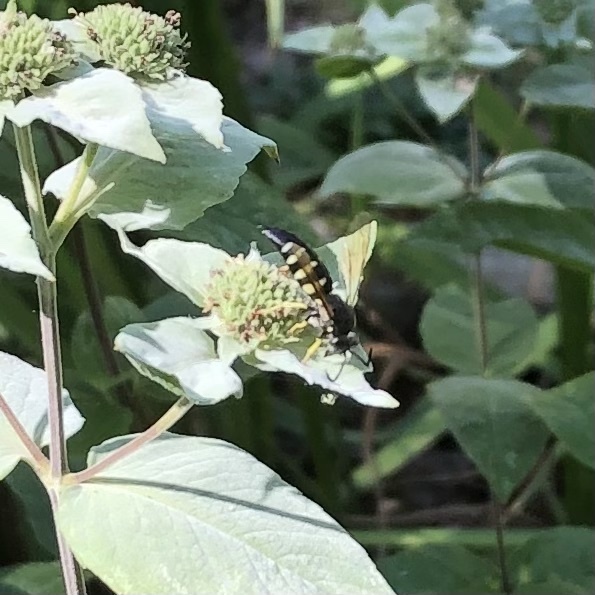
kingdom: Animalia
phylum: Arthropoda
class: Insecta
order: Hymenoptera
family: Crabronidae
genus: Bicyrtes
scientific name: Bicyrtes quadrifasciatus
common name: Four-banded stink bug hunter wasp
